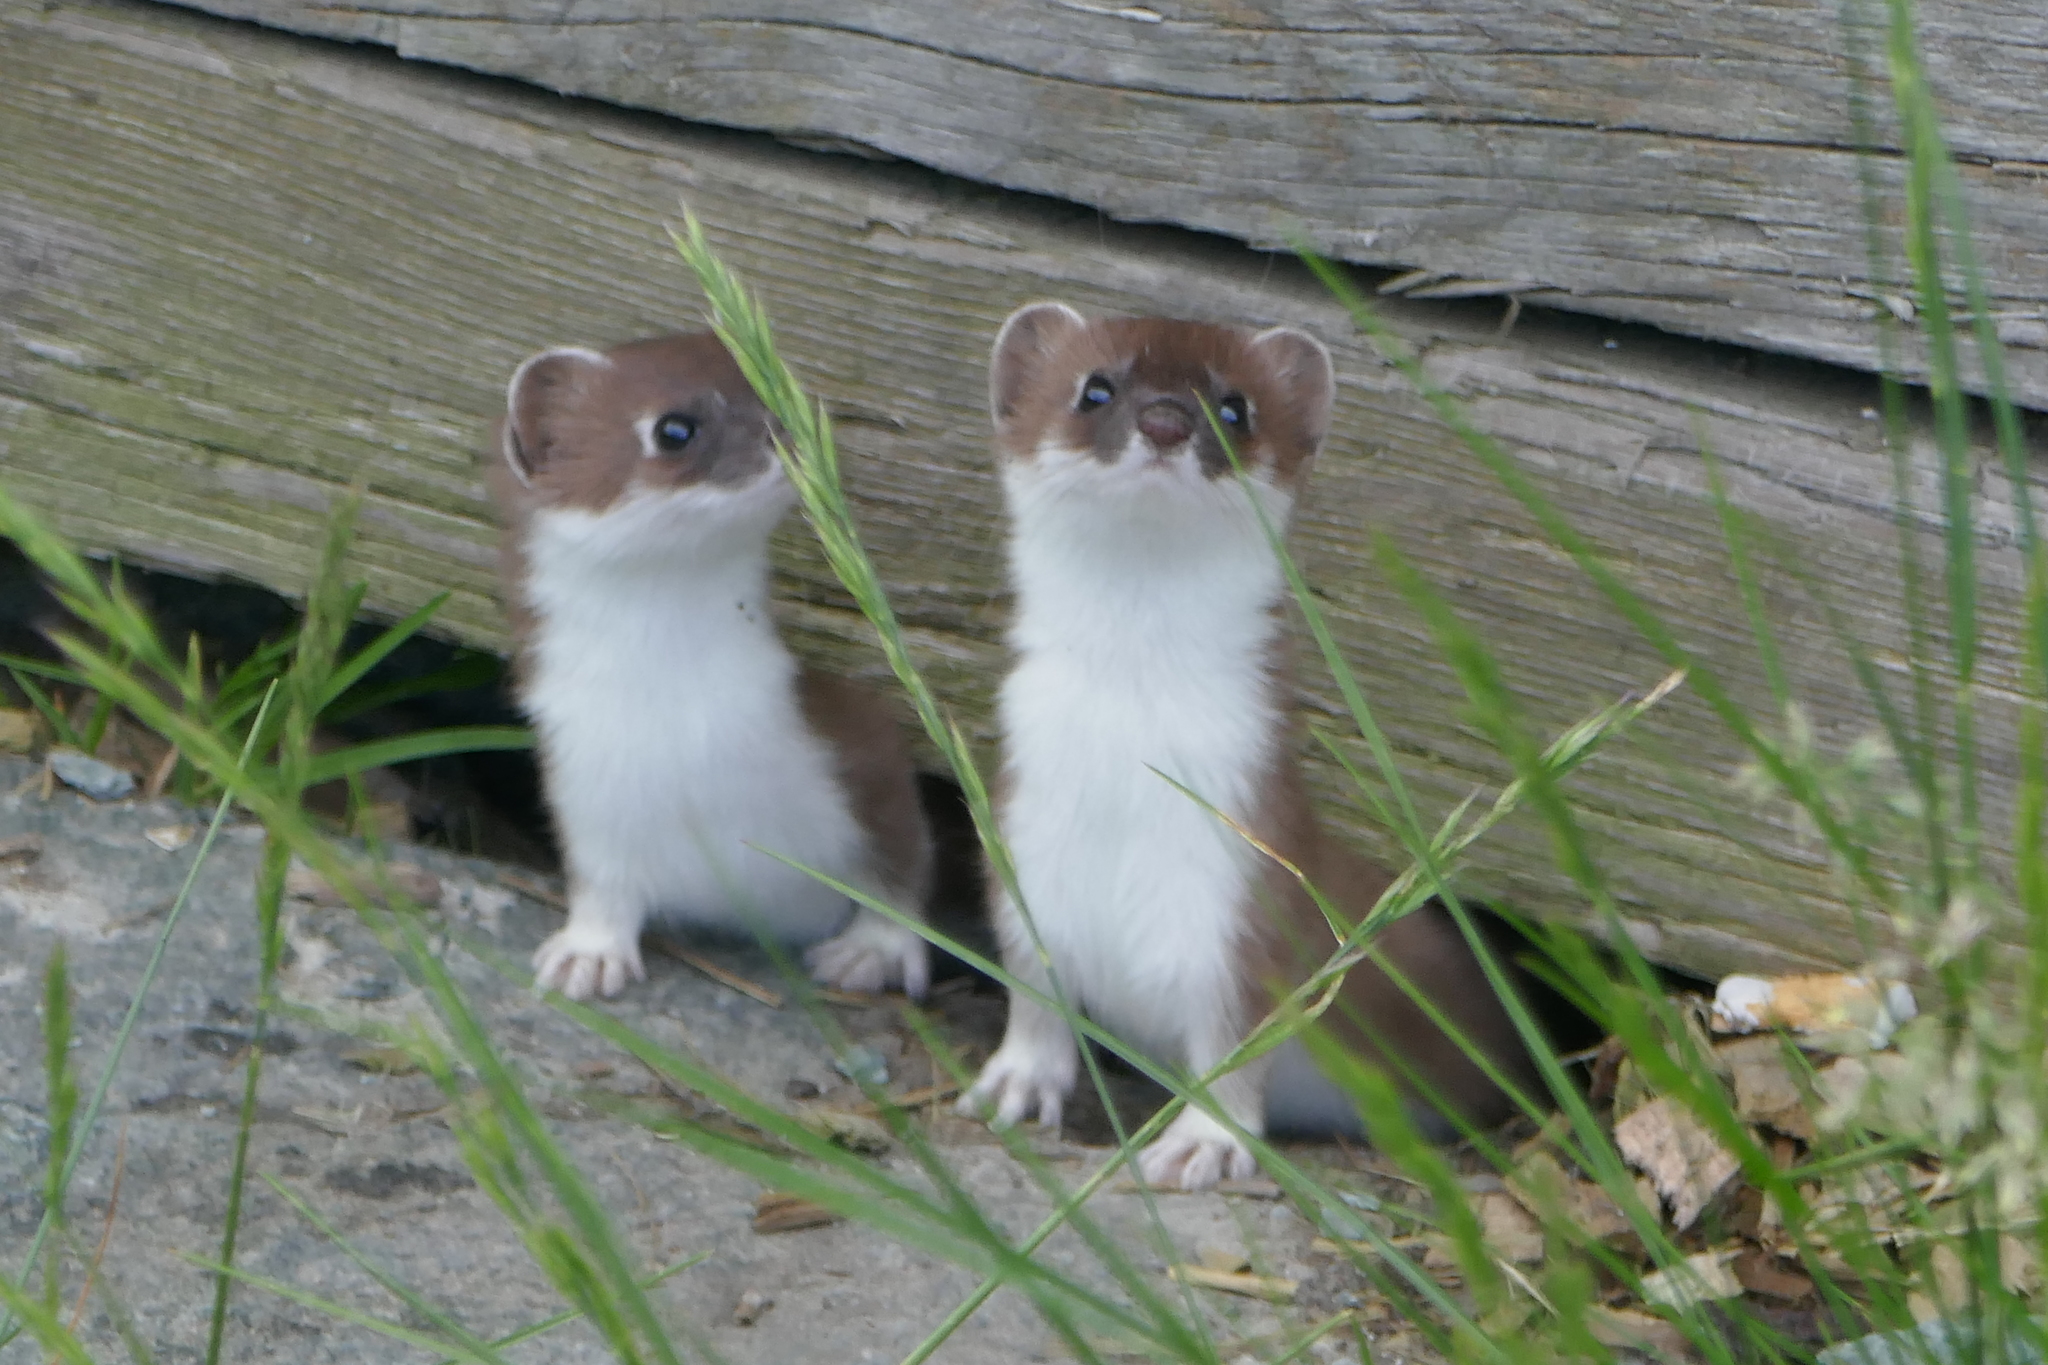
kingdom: Animalia
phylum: Chordata
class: Mammalia
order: Carnivora
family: Mustelidae
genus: Mustela
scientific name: Mustela erminea
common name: Stoat
